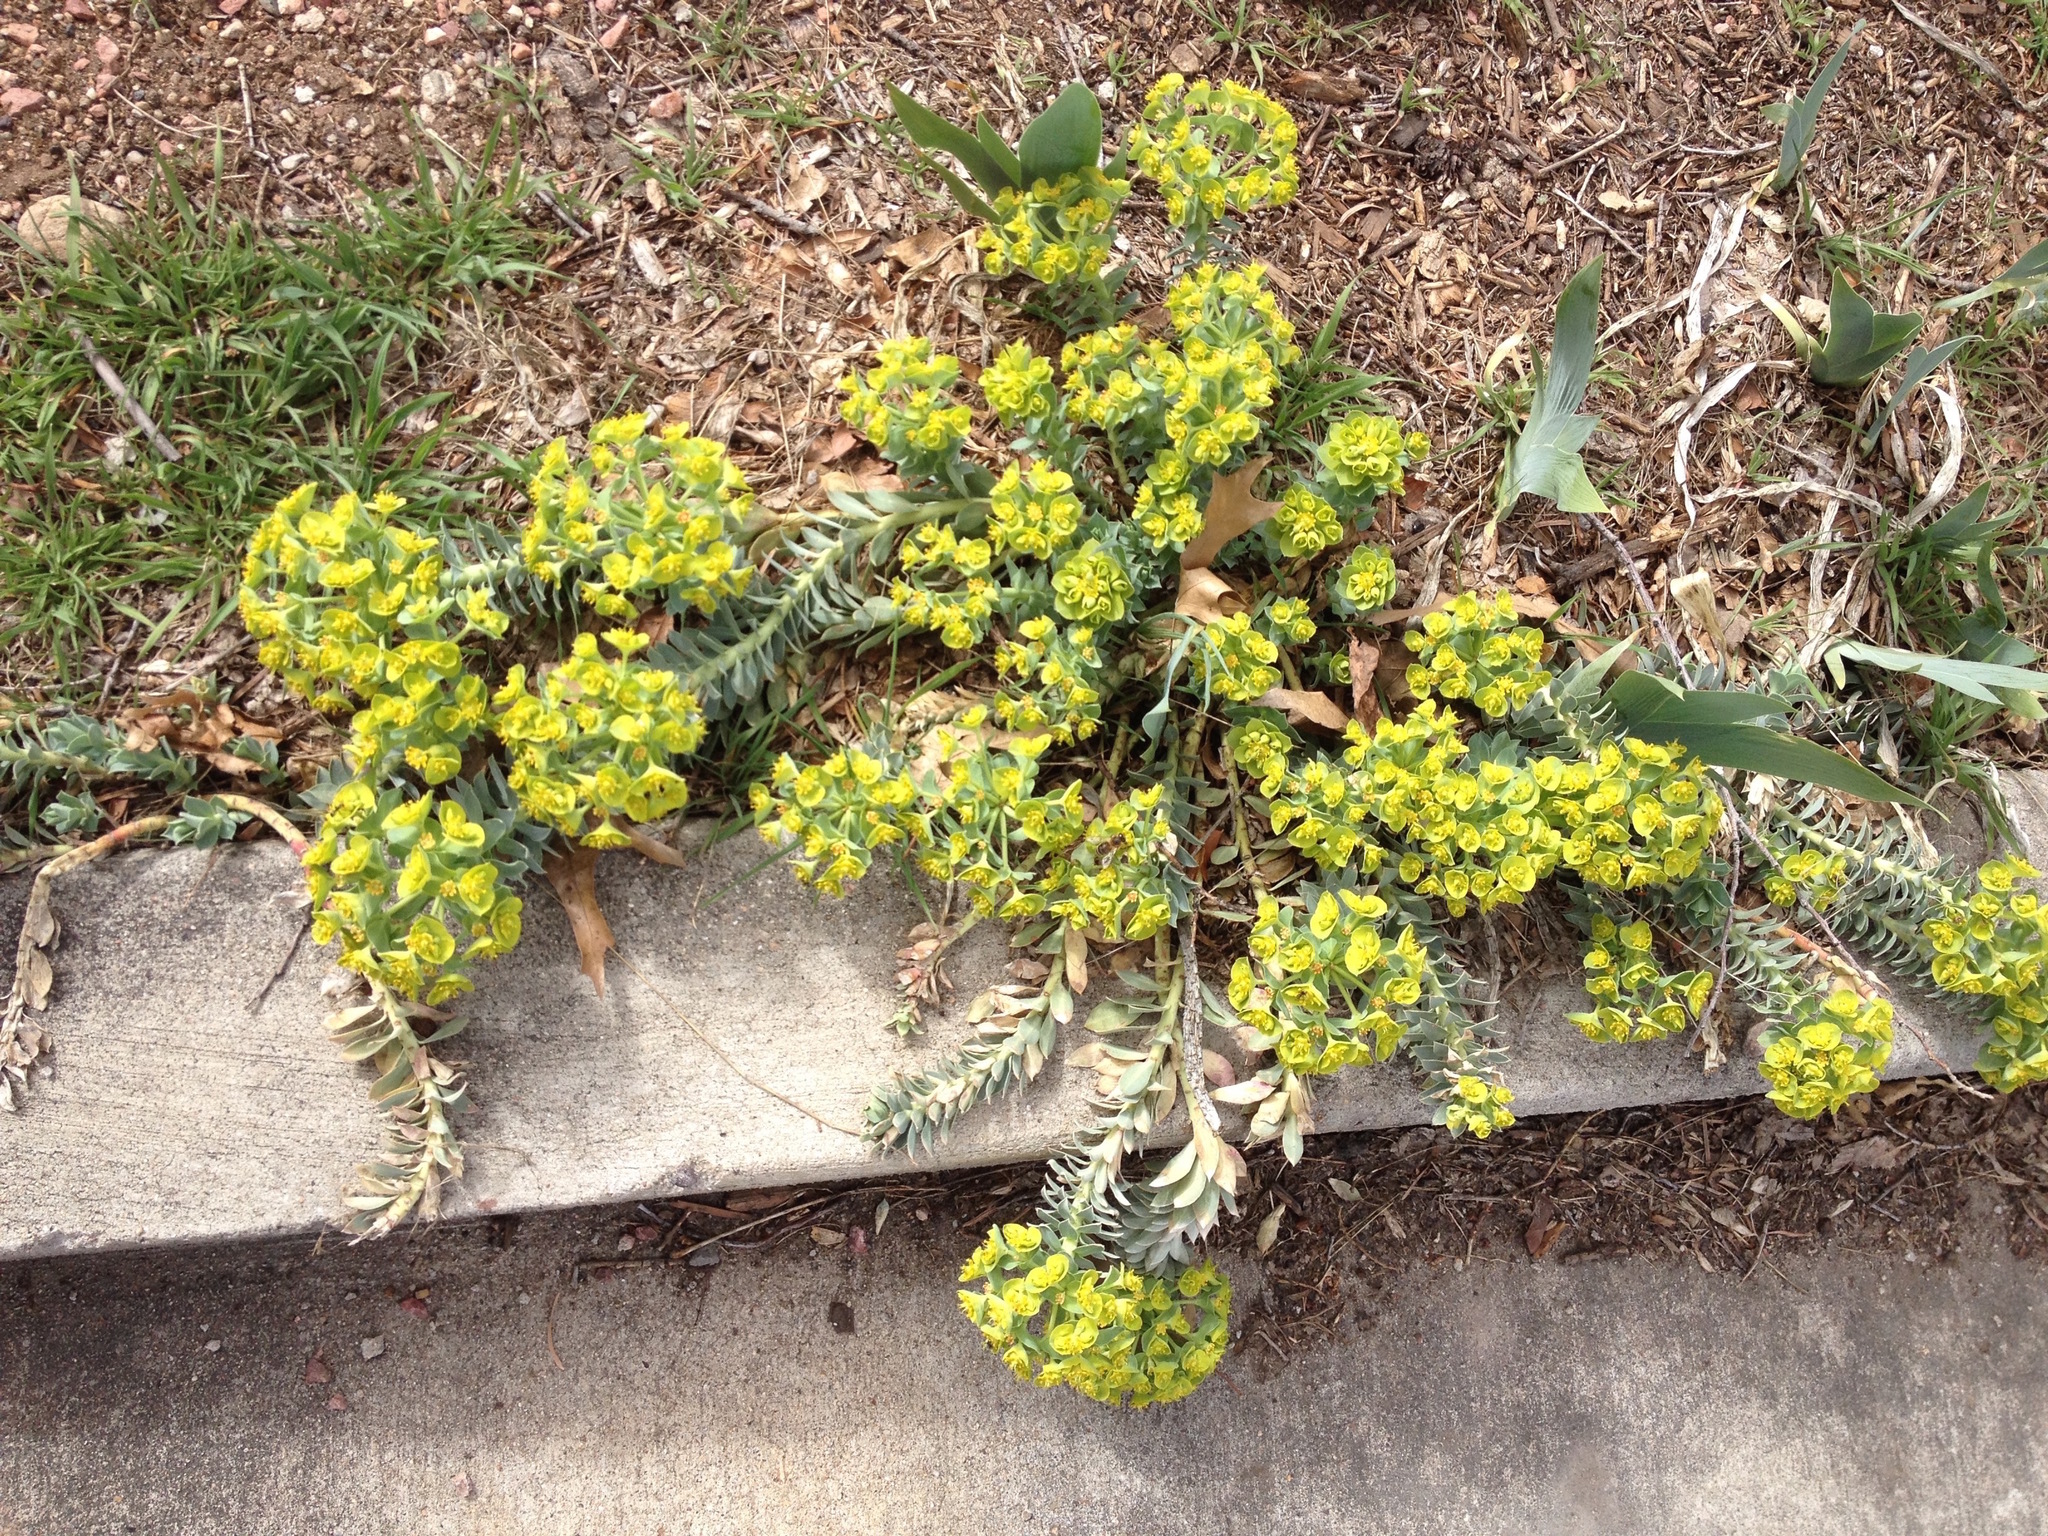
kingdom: Plantae
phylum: Tracheophyta
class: Magnoliopsida
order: Malpighiales
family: Euphorbiaceae
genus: Euphorbia
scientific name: Euphorbia myrsinites
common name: Myrtle spurge
